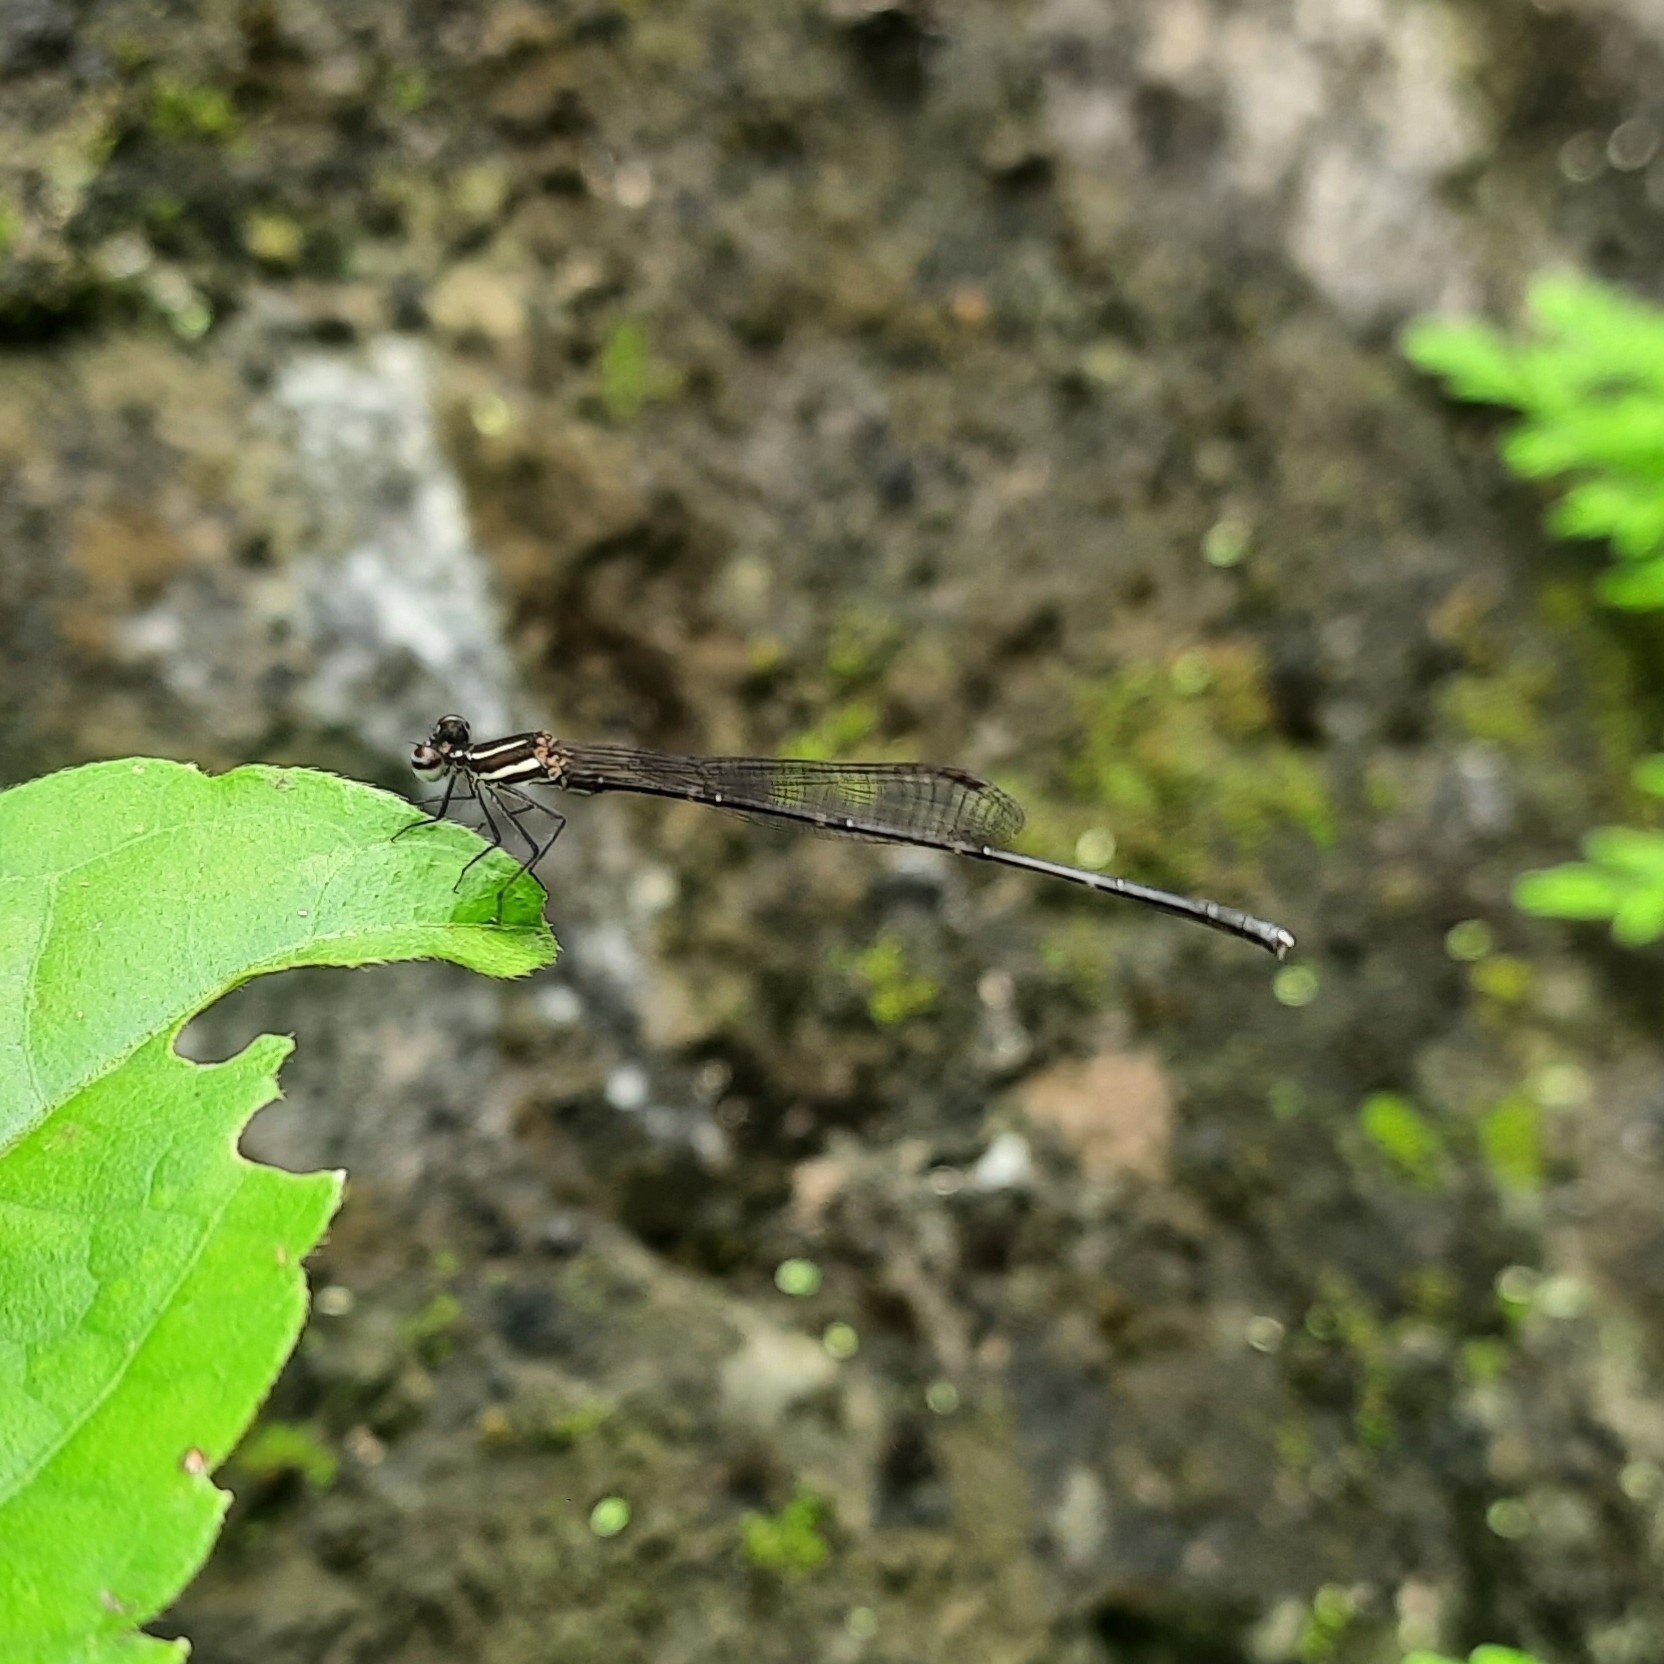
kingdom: Animalia
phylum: Arthropoda
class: Insecta
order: Odonata
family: Platycnemididae
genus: Prodasineura
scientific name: Prodasineura verticalis
